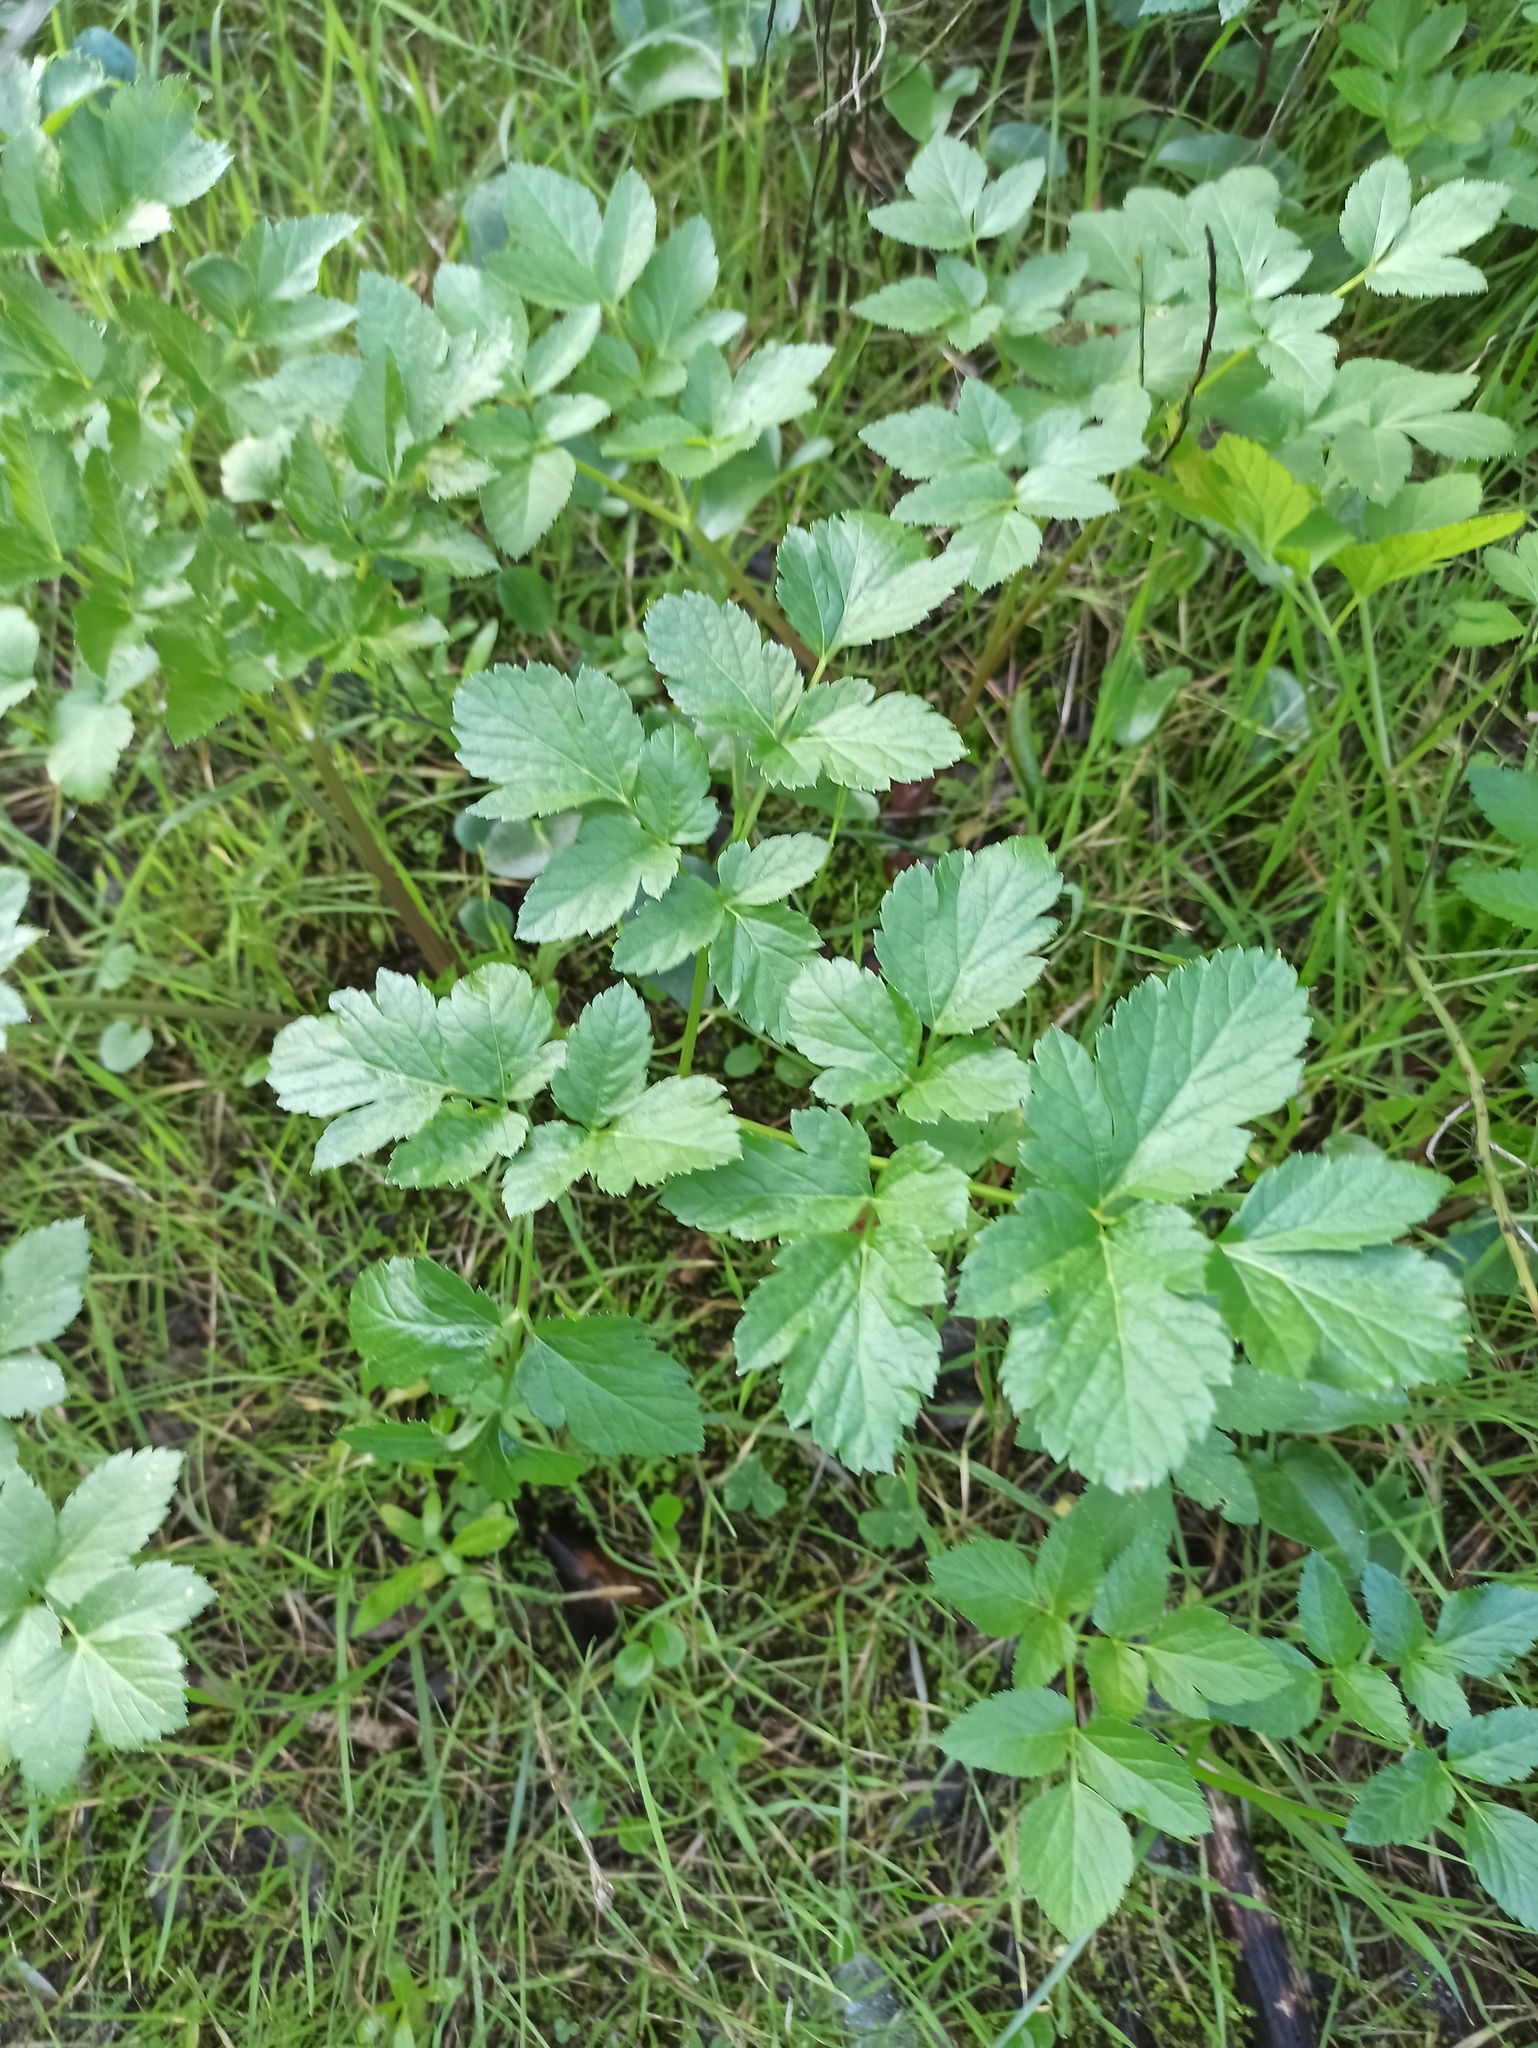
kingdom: Plantae
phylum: Tracheophyta
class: Magnoliopsida
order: Apiales
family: Apiaceae
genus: Smyrnium
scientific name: Smyrnium olusatrum
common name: Alexanders
